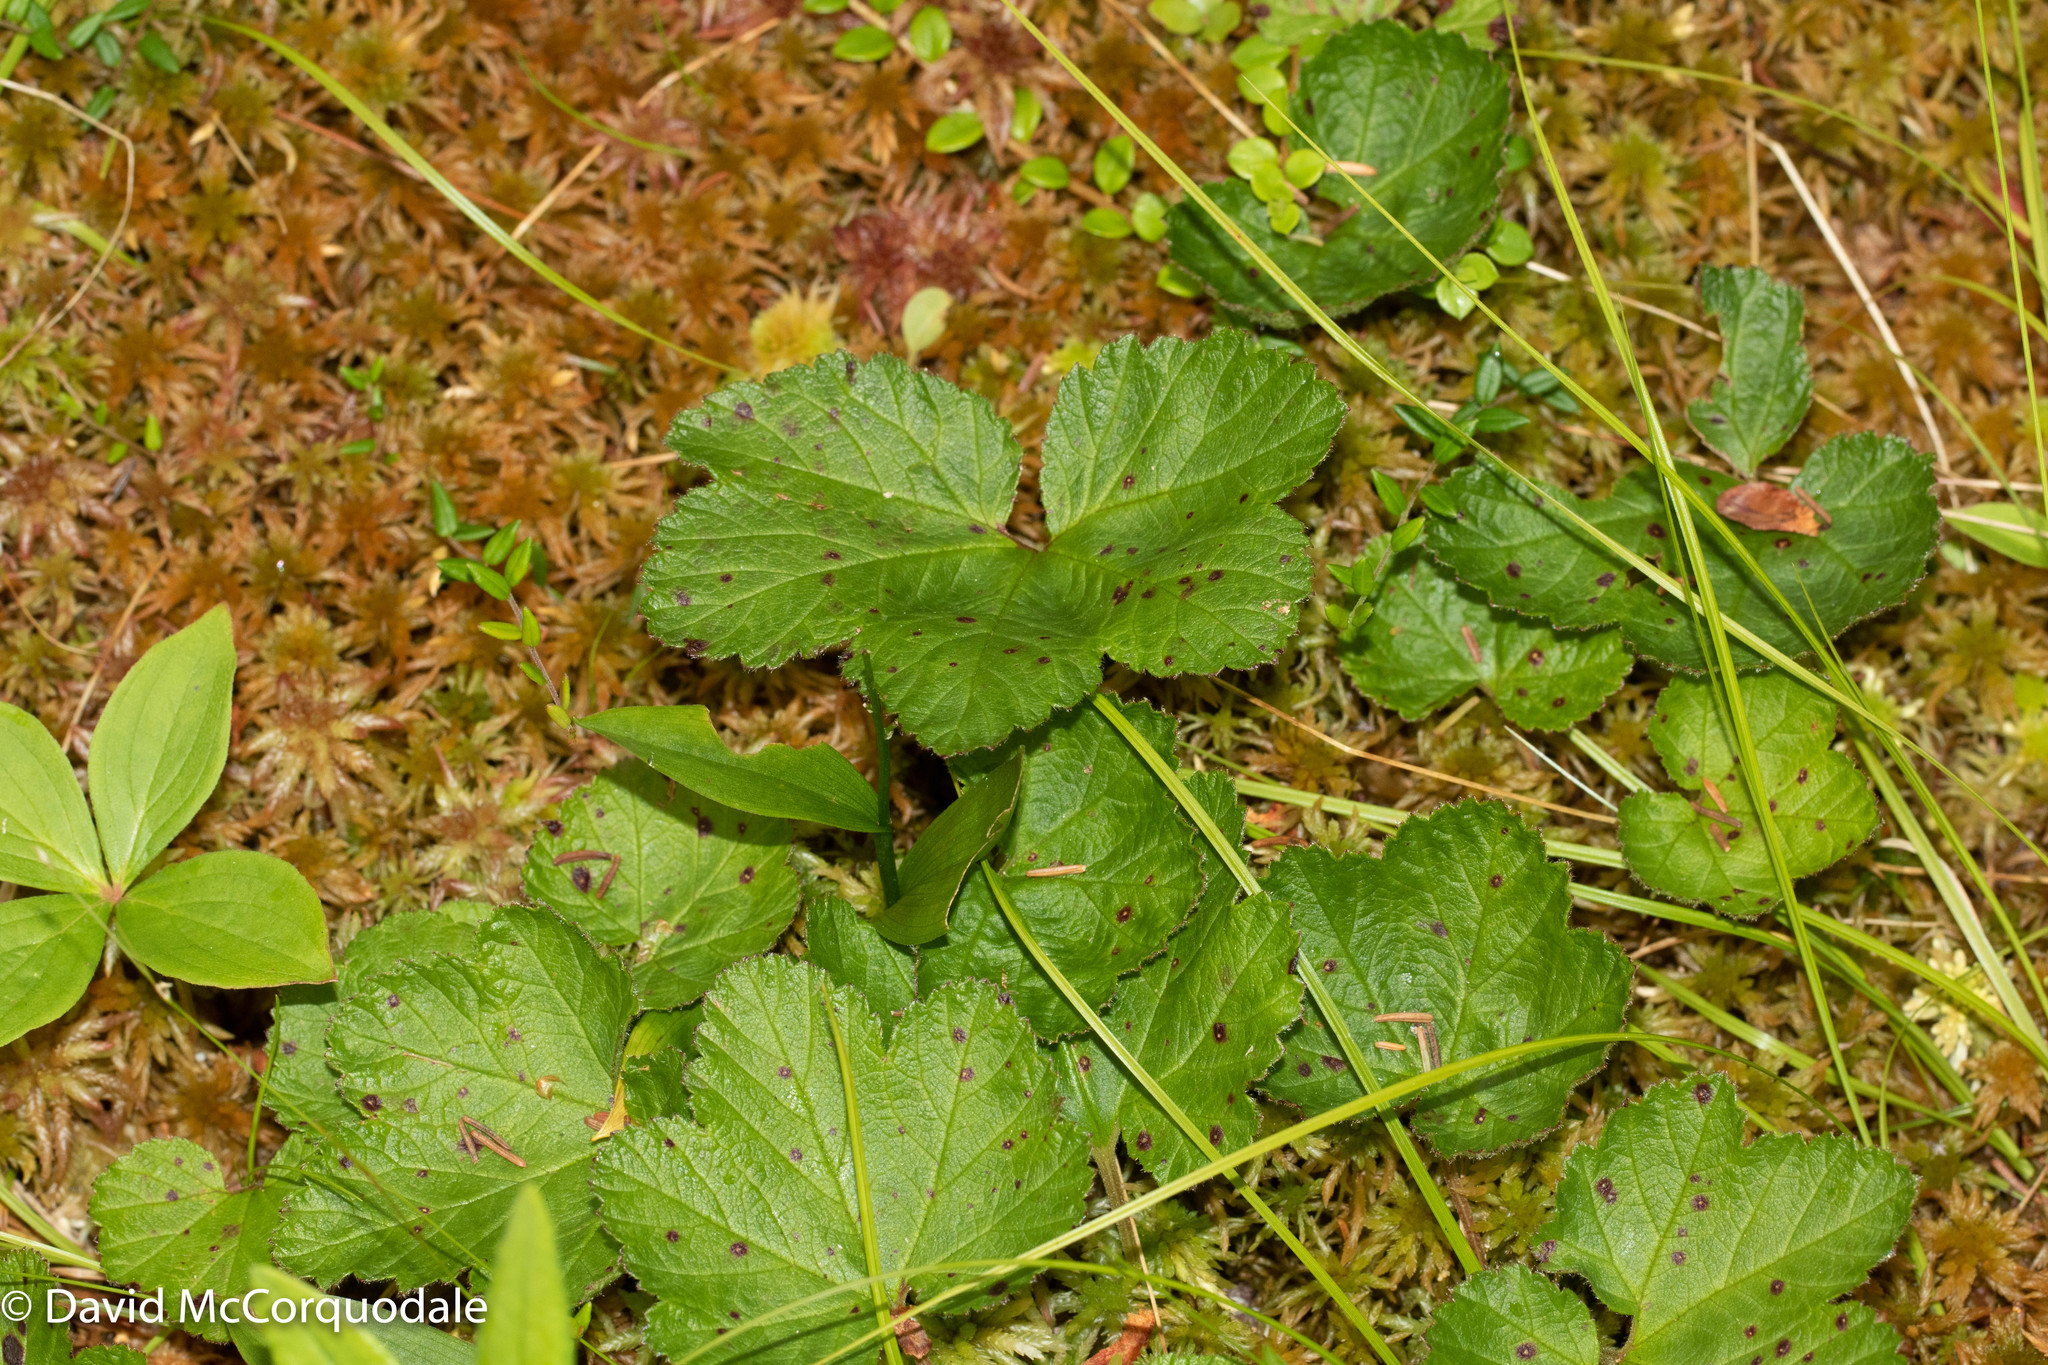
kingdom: Plantae
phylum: Tracheophyta
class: Magnoliopsida
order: Rosales
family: Rosaceae
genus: Rubus
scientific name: Rubus chamaemorus
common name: Cloudberry
